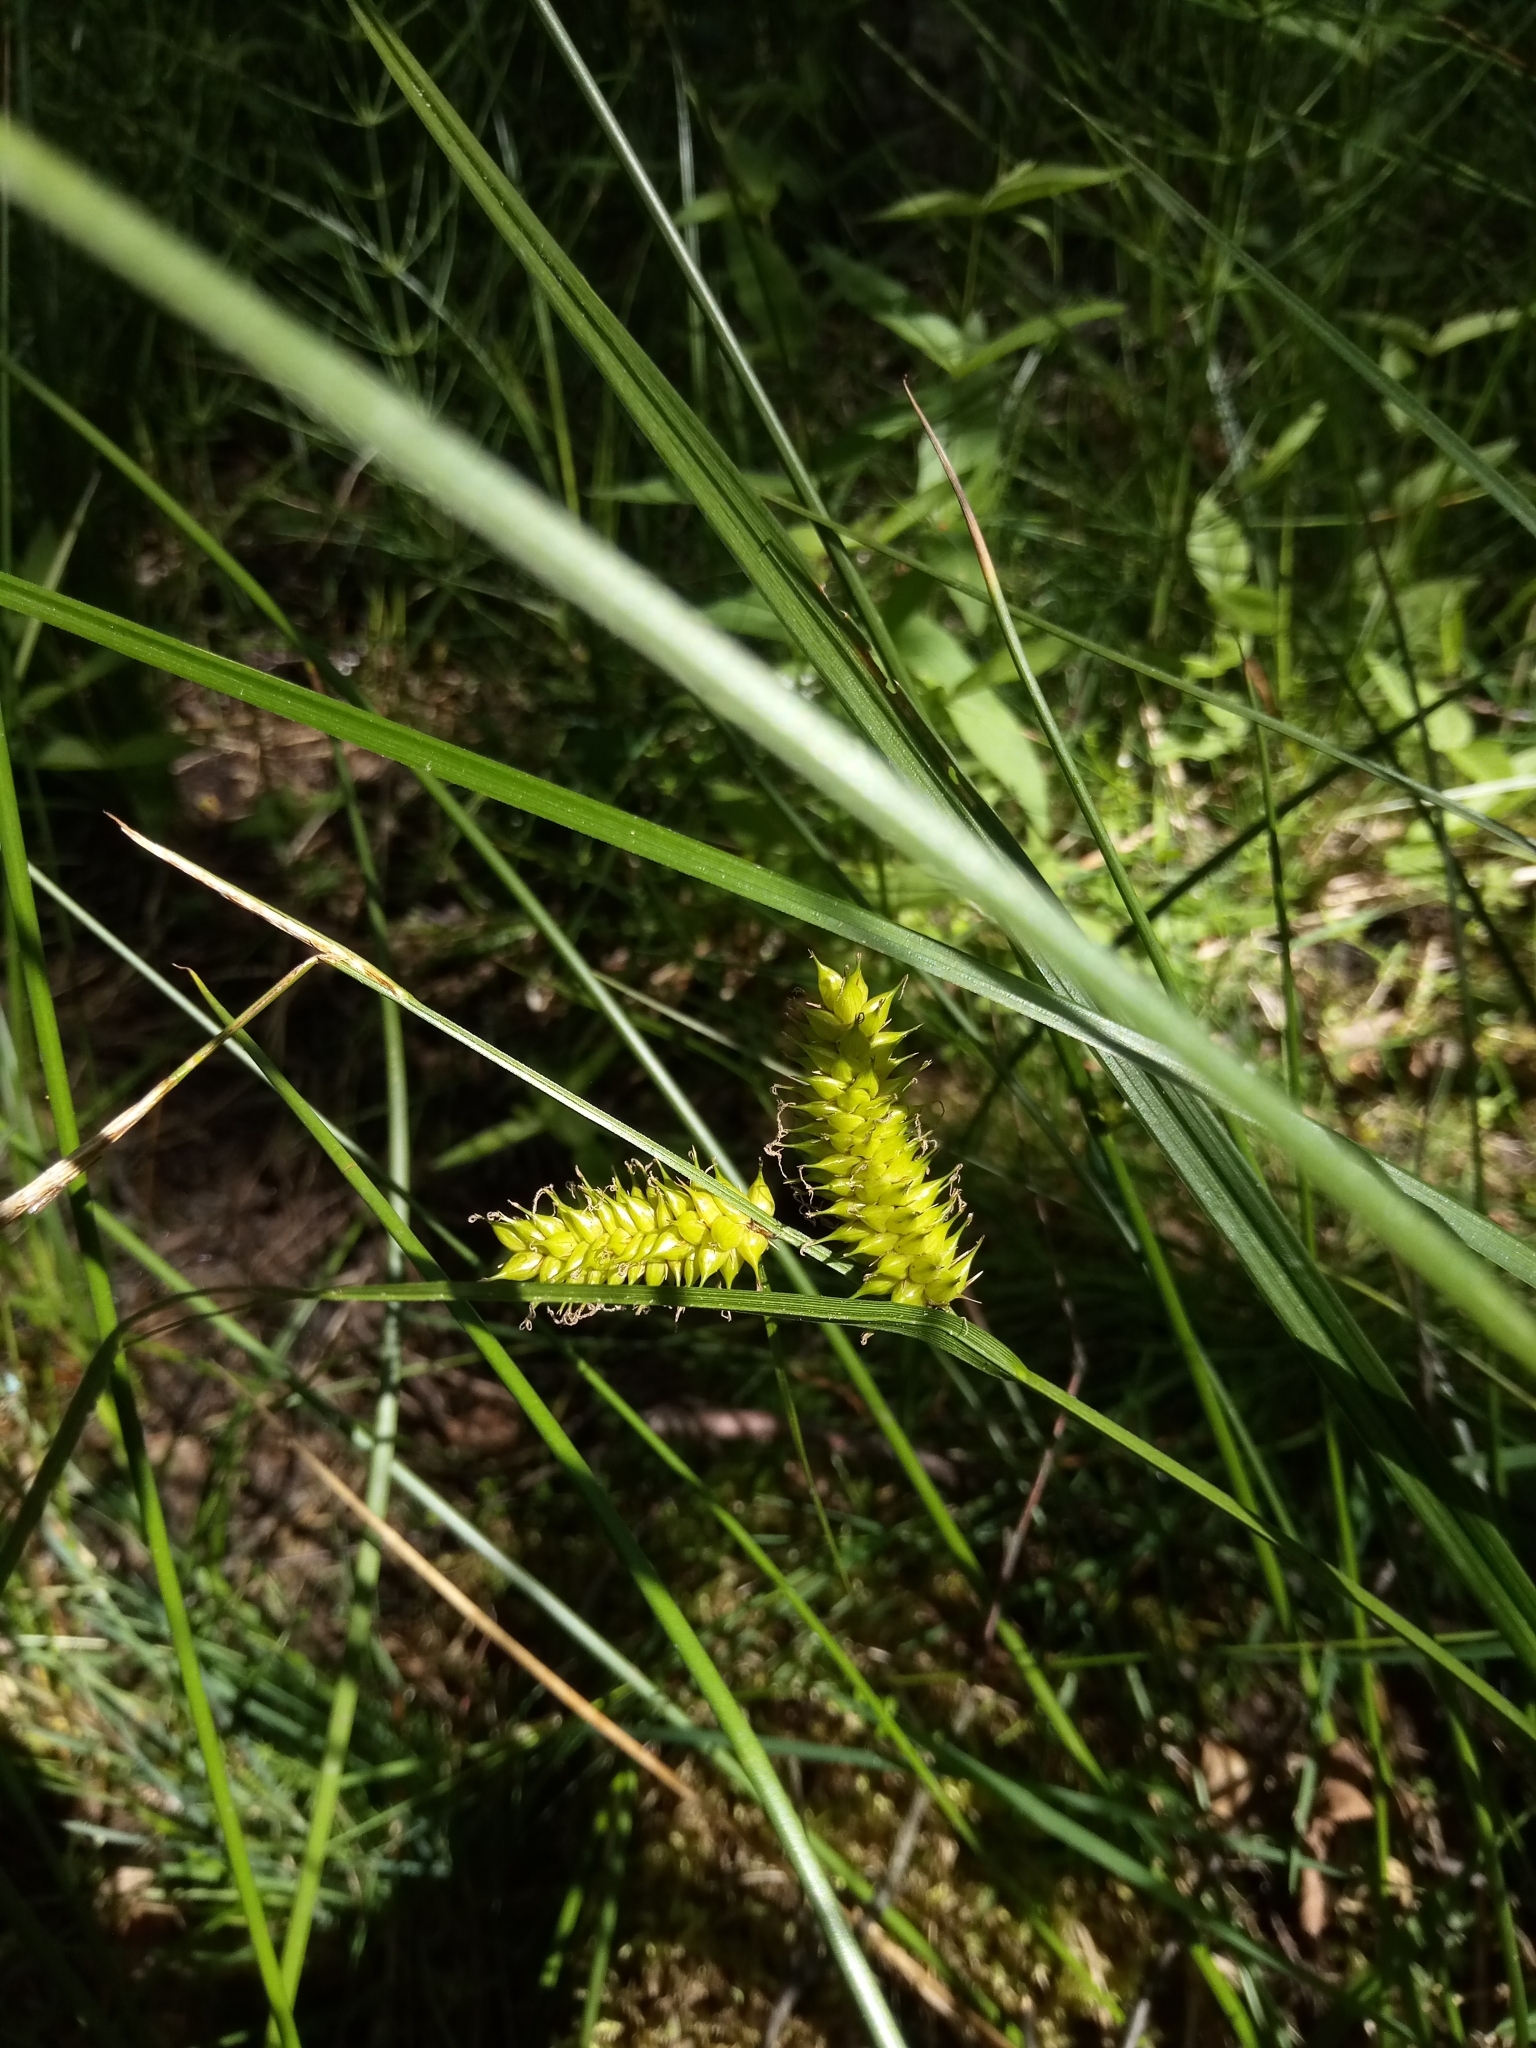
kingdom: Plantae
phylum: Tracheophyta
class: Liliopsida
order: Poales
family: Cyperaceae
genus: Carex
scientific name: Carex vesicaria
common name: Bladder-sedge
